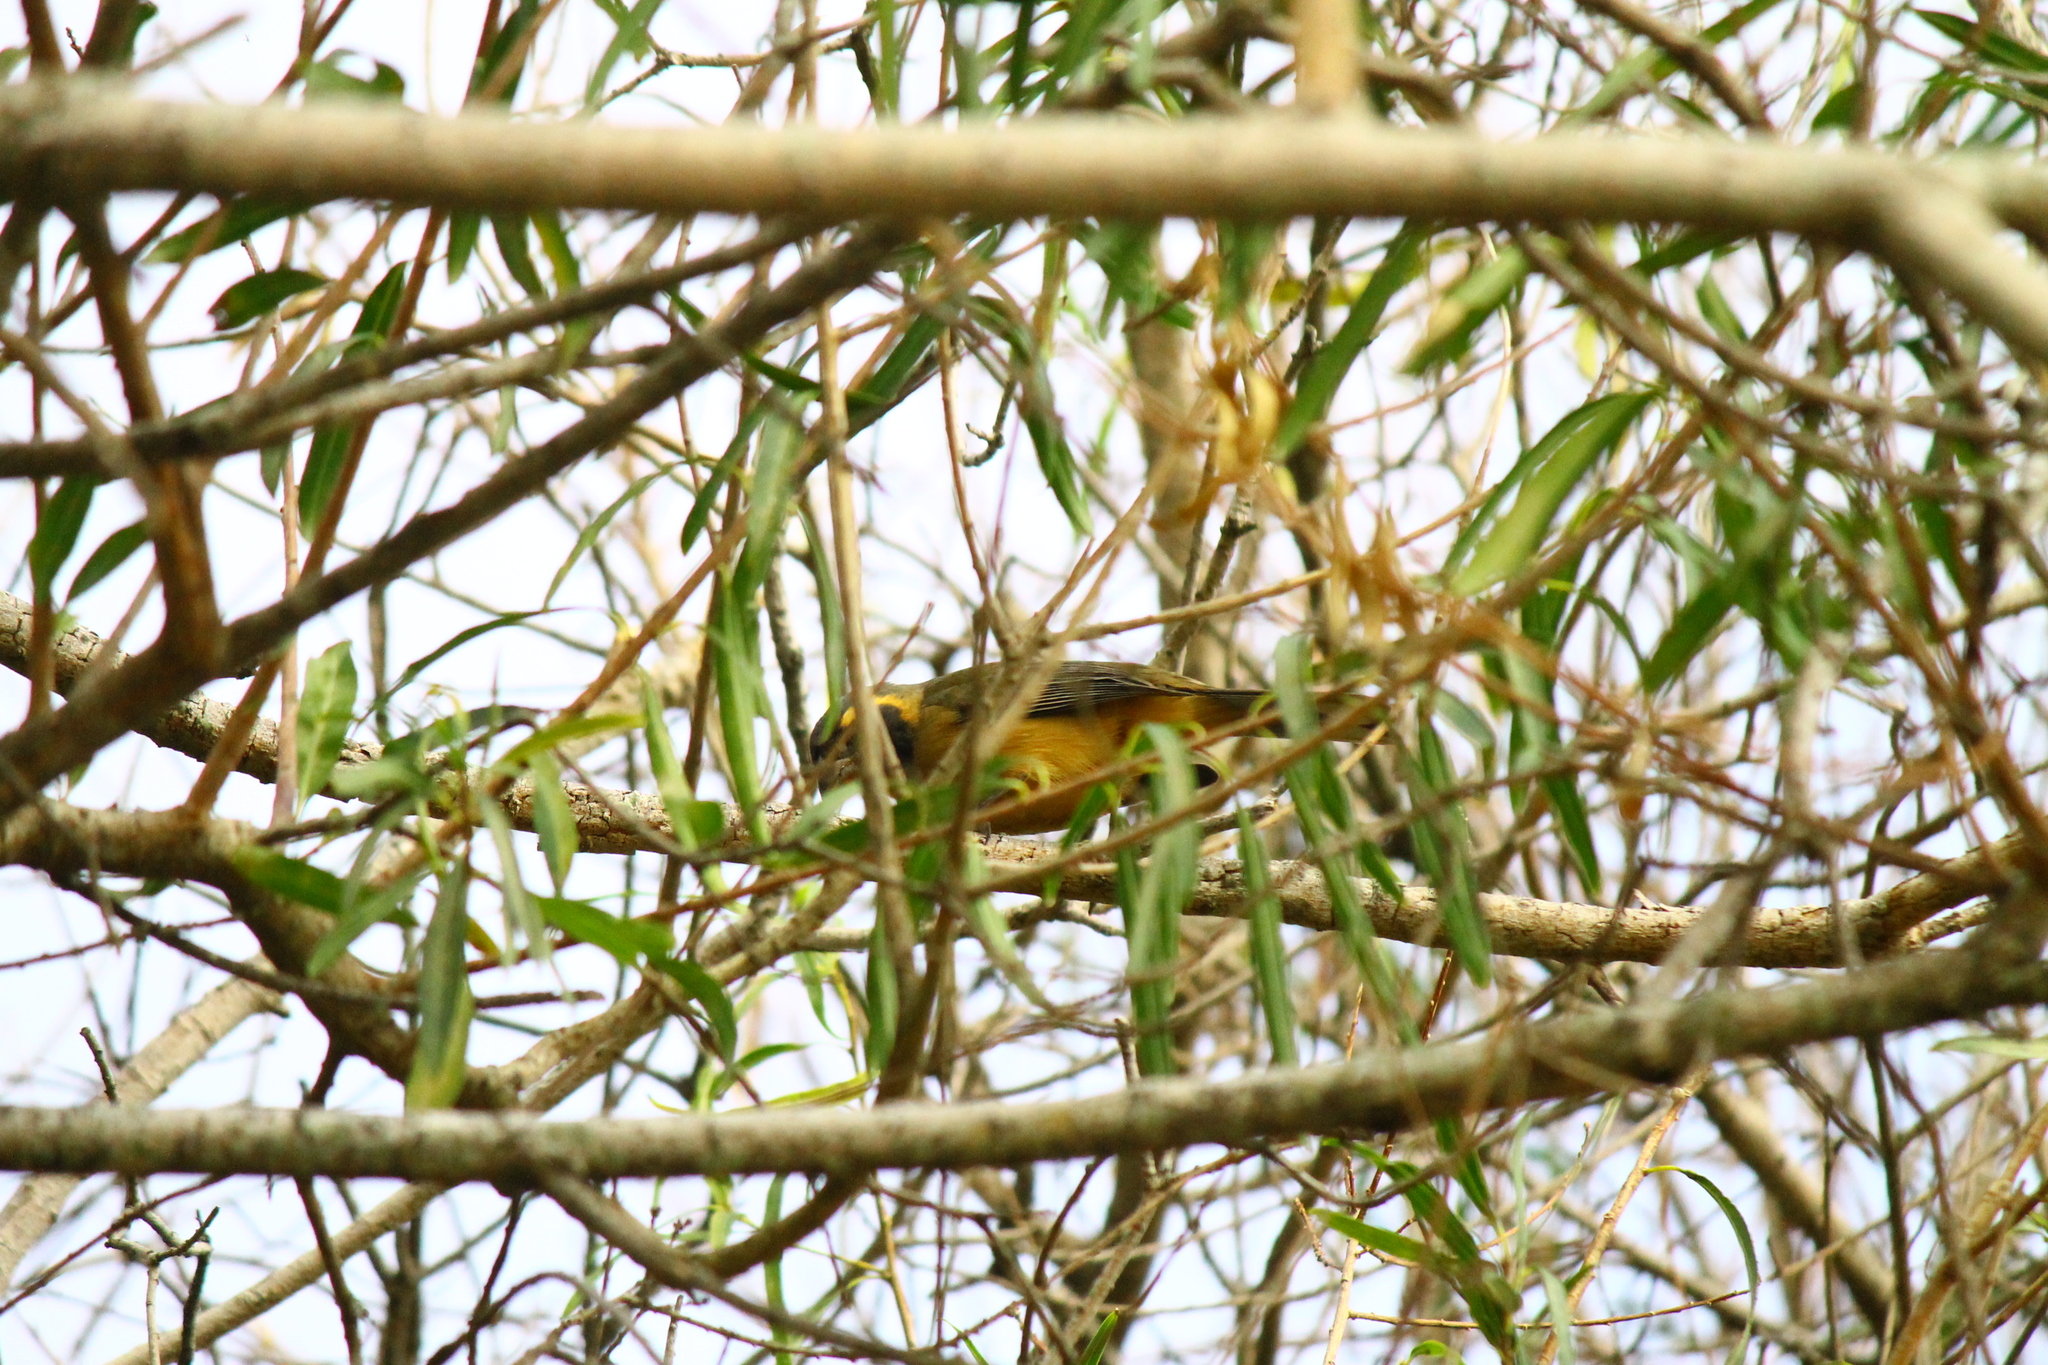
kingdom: Animalia
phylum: Chordata
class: Aves
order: Passeriformes
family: Thraupidae
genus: Saltator
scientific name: Saltator aurantiirostris
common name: Golden-billed saltator
